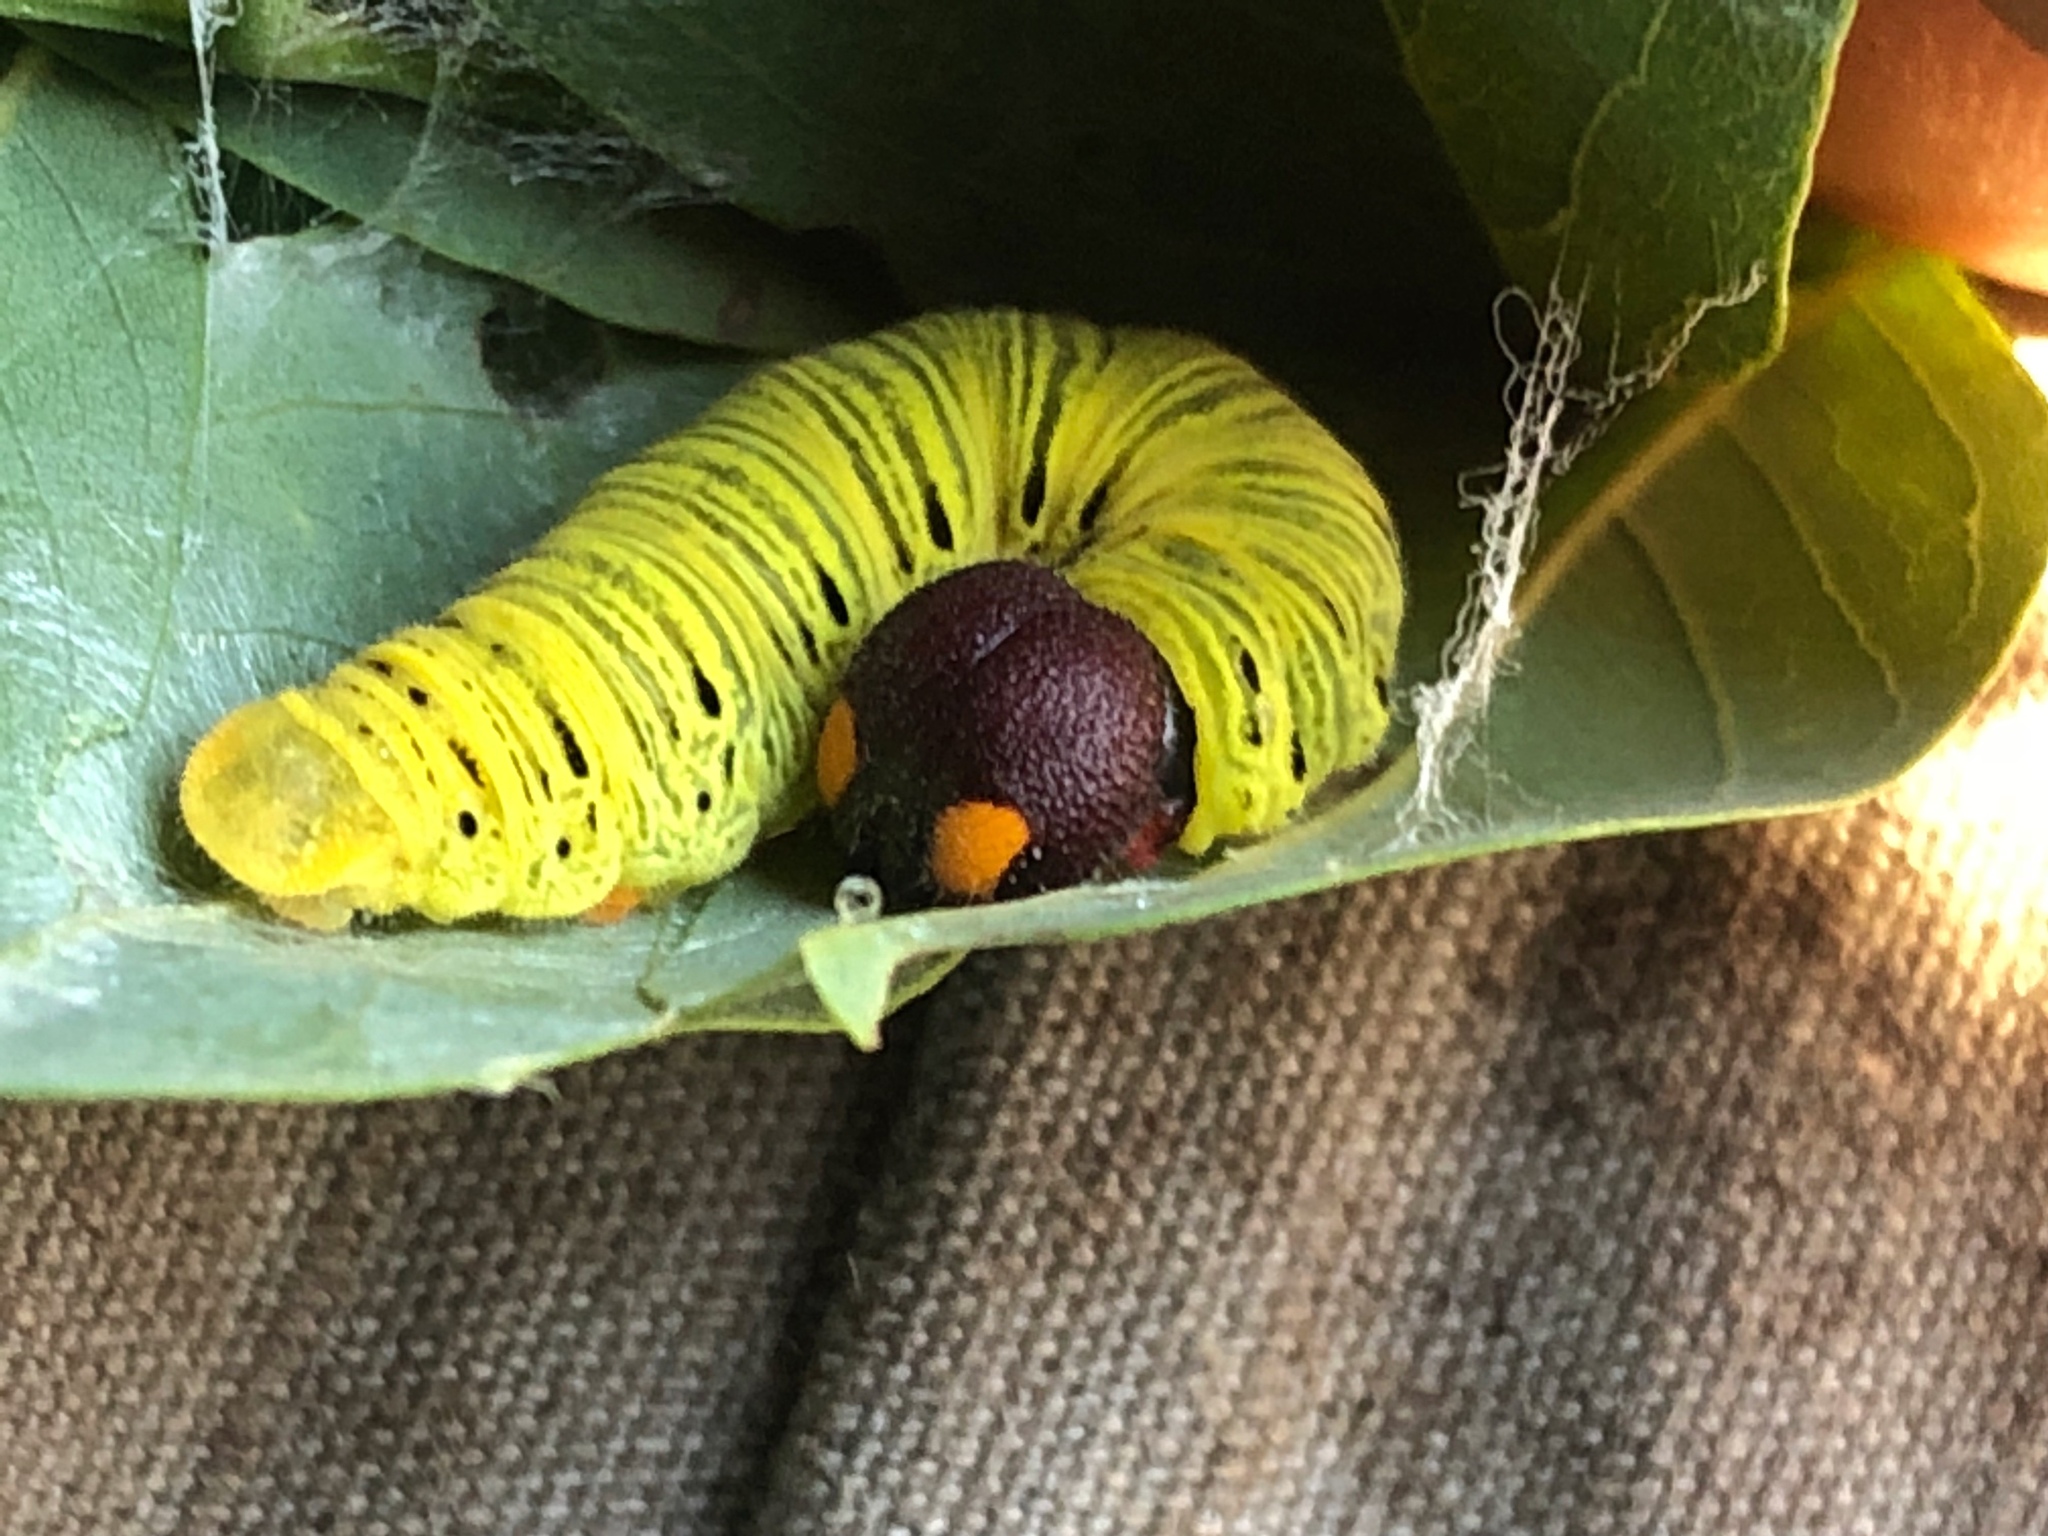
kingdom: Animalia
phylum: Arthropoda
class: Insecta
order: Lepidoptera
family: Hesperiidae
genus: Epargyreus
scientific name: Epargyreus clarus
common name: Silver-spotted skipper
